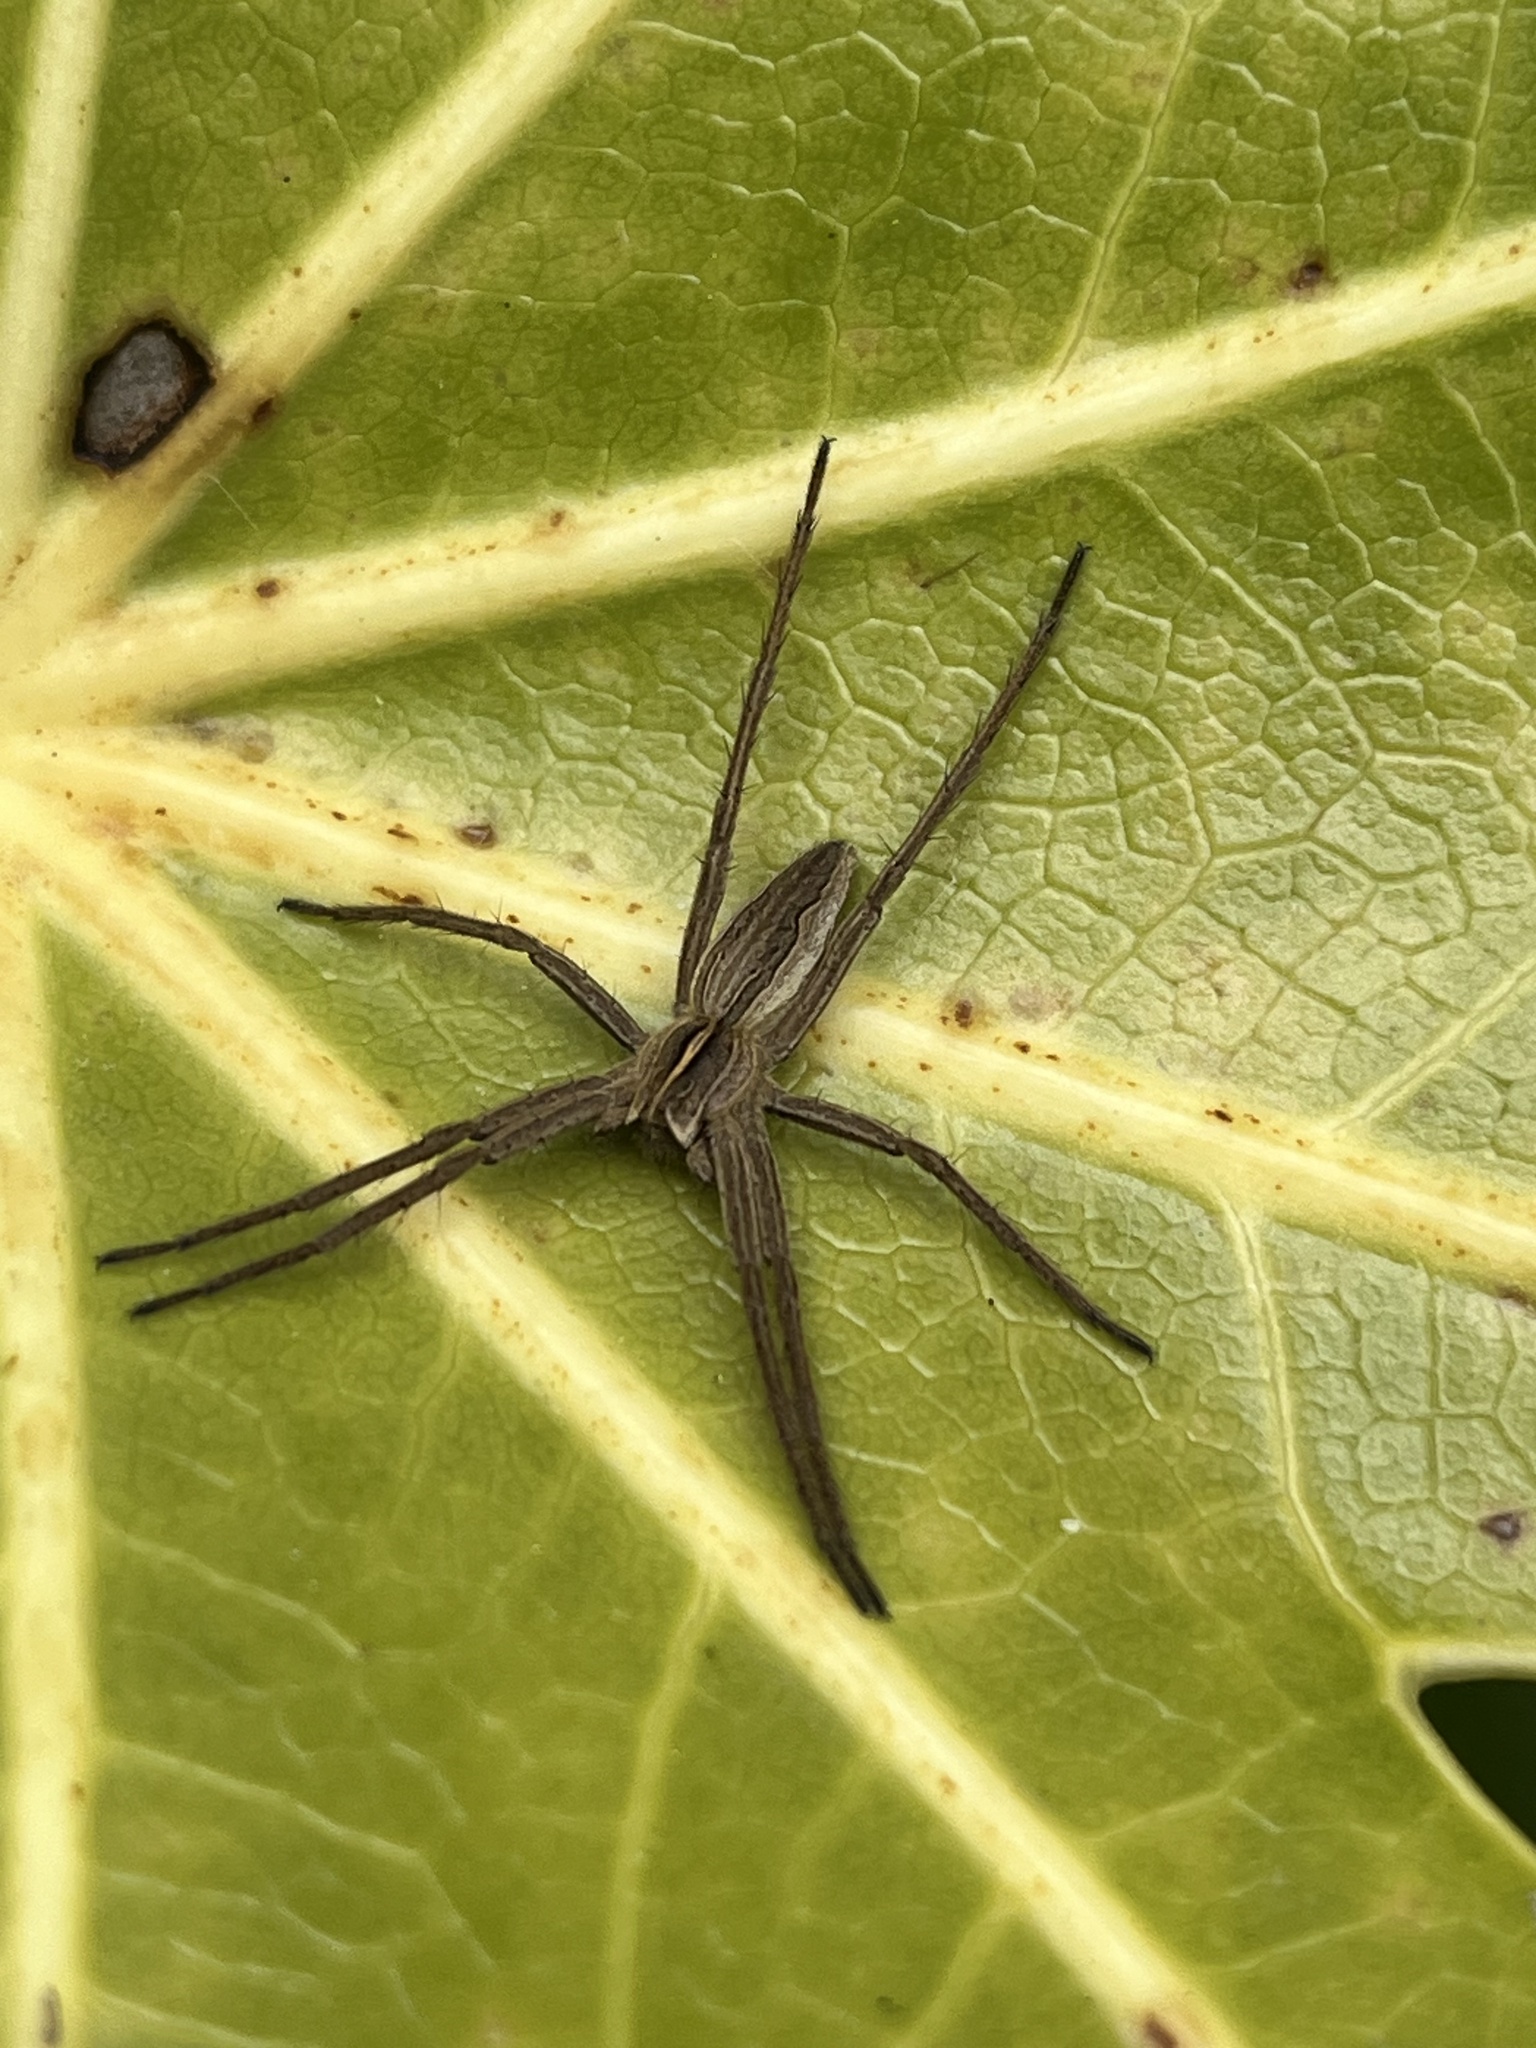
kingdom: Animalia
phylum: Arthropoda
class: Arachnida
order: Araneae
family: Pisauridae
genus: Pisaura
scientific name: Pisaura mirabilis
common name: Tent spider
